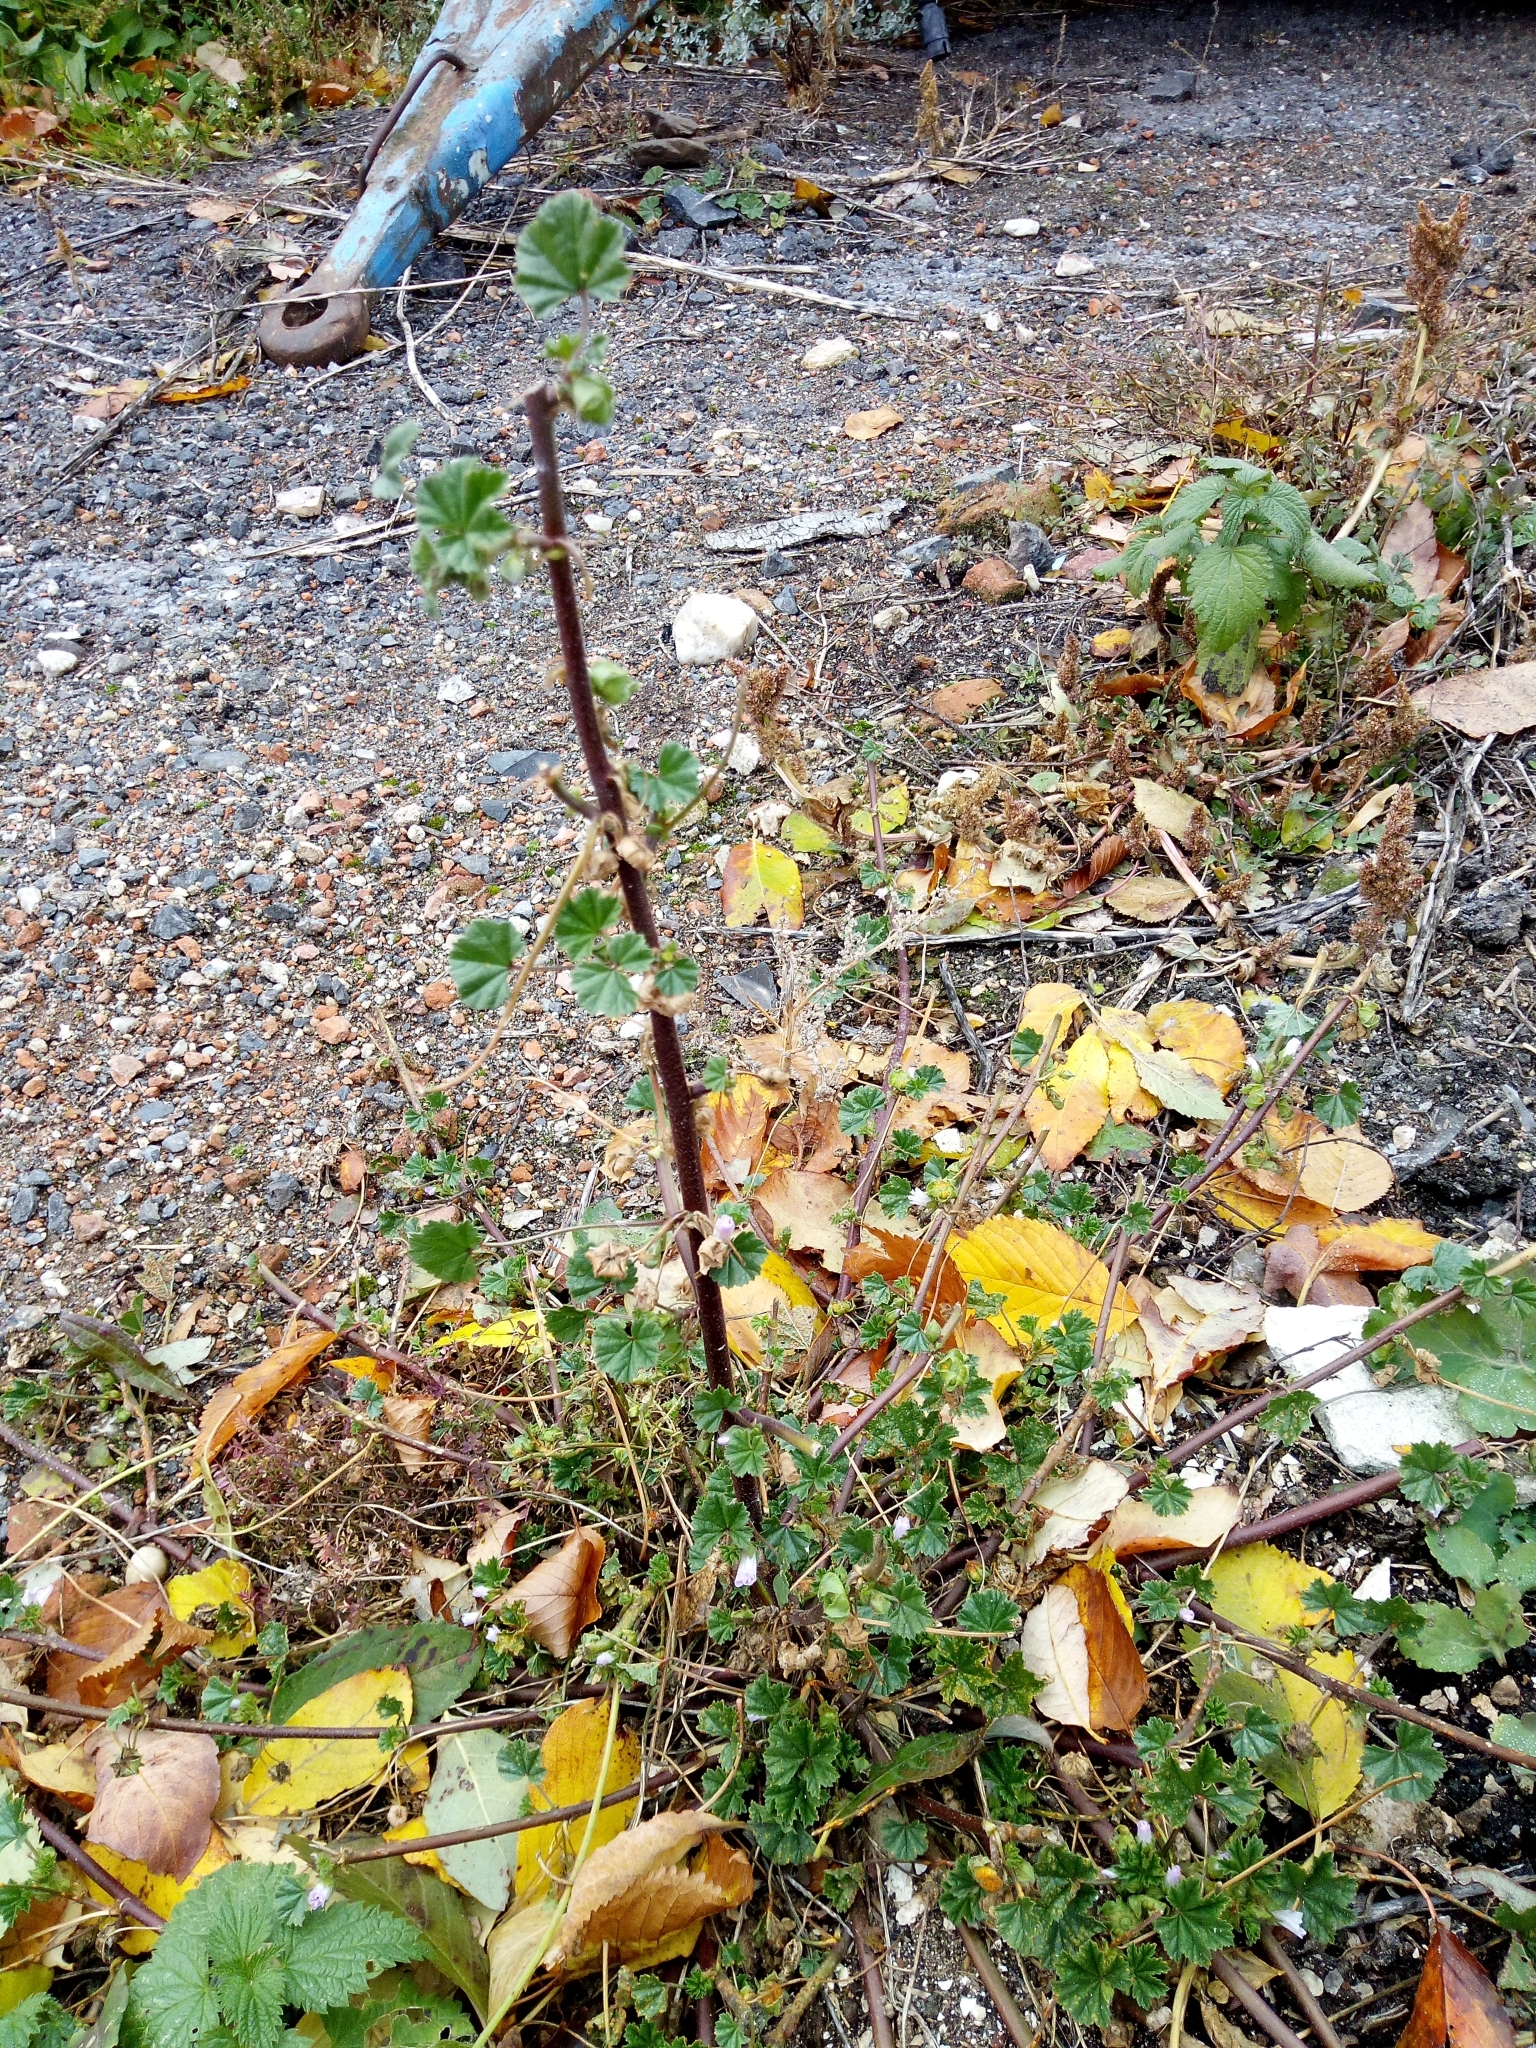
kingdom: Plantae
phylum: Tracheophyta
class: Magnoliopsida
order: Malvales
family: Malvaceae
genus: Malva
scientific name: Malva neglecta
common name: Common mallow
